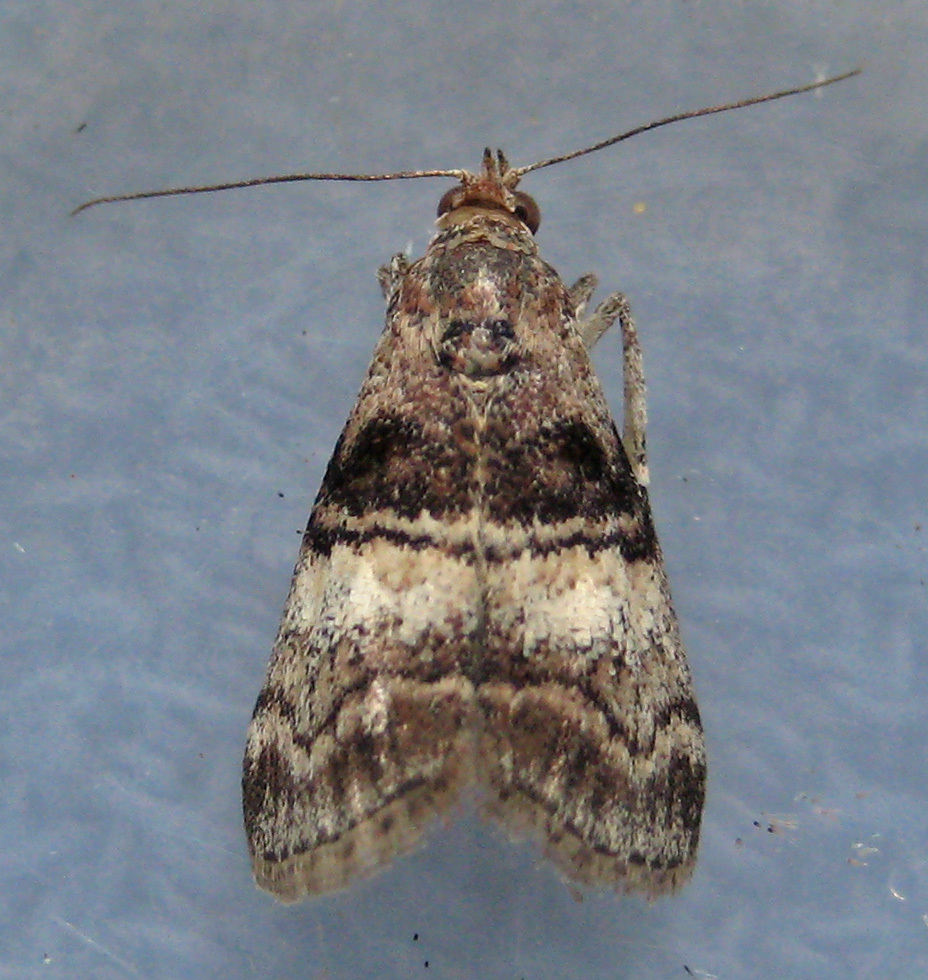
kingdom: Animalia
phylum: Arthropoda
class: Insecta
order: Lepidoptera
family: Pyralidae
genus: Pococera
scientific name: Pococera asperatella
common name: Maple webworm moth
